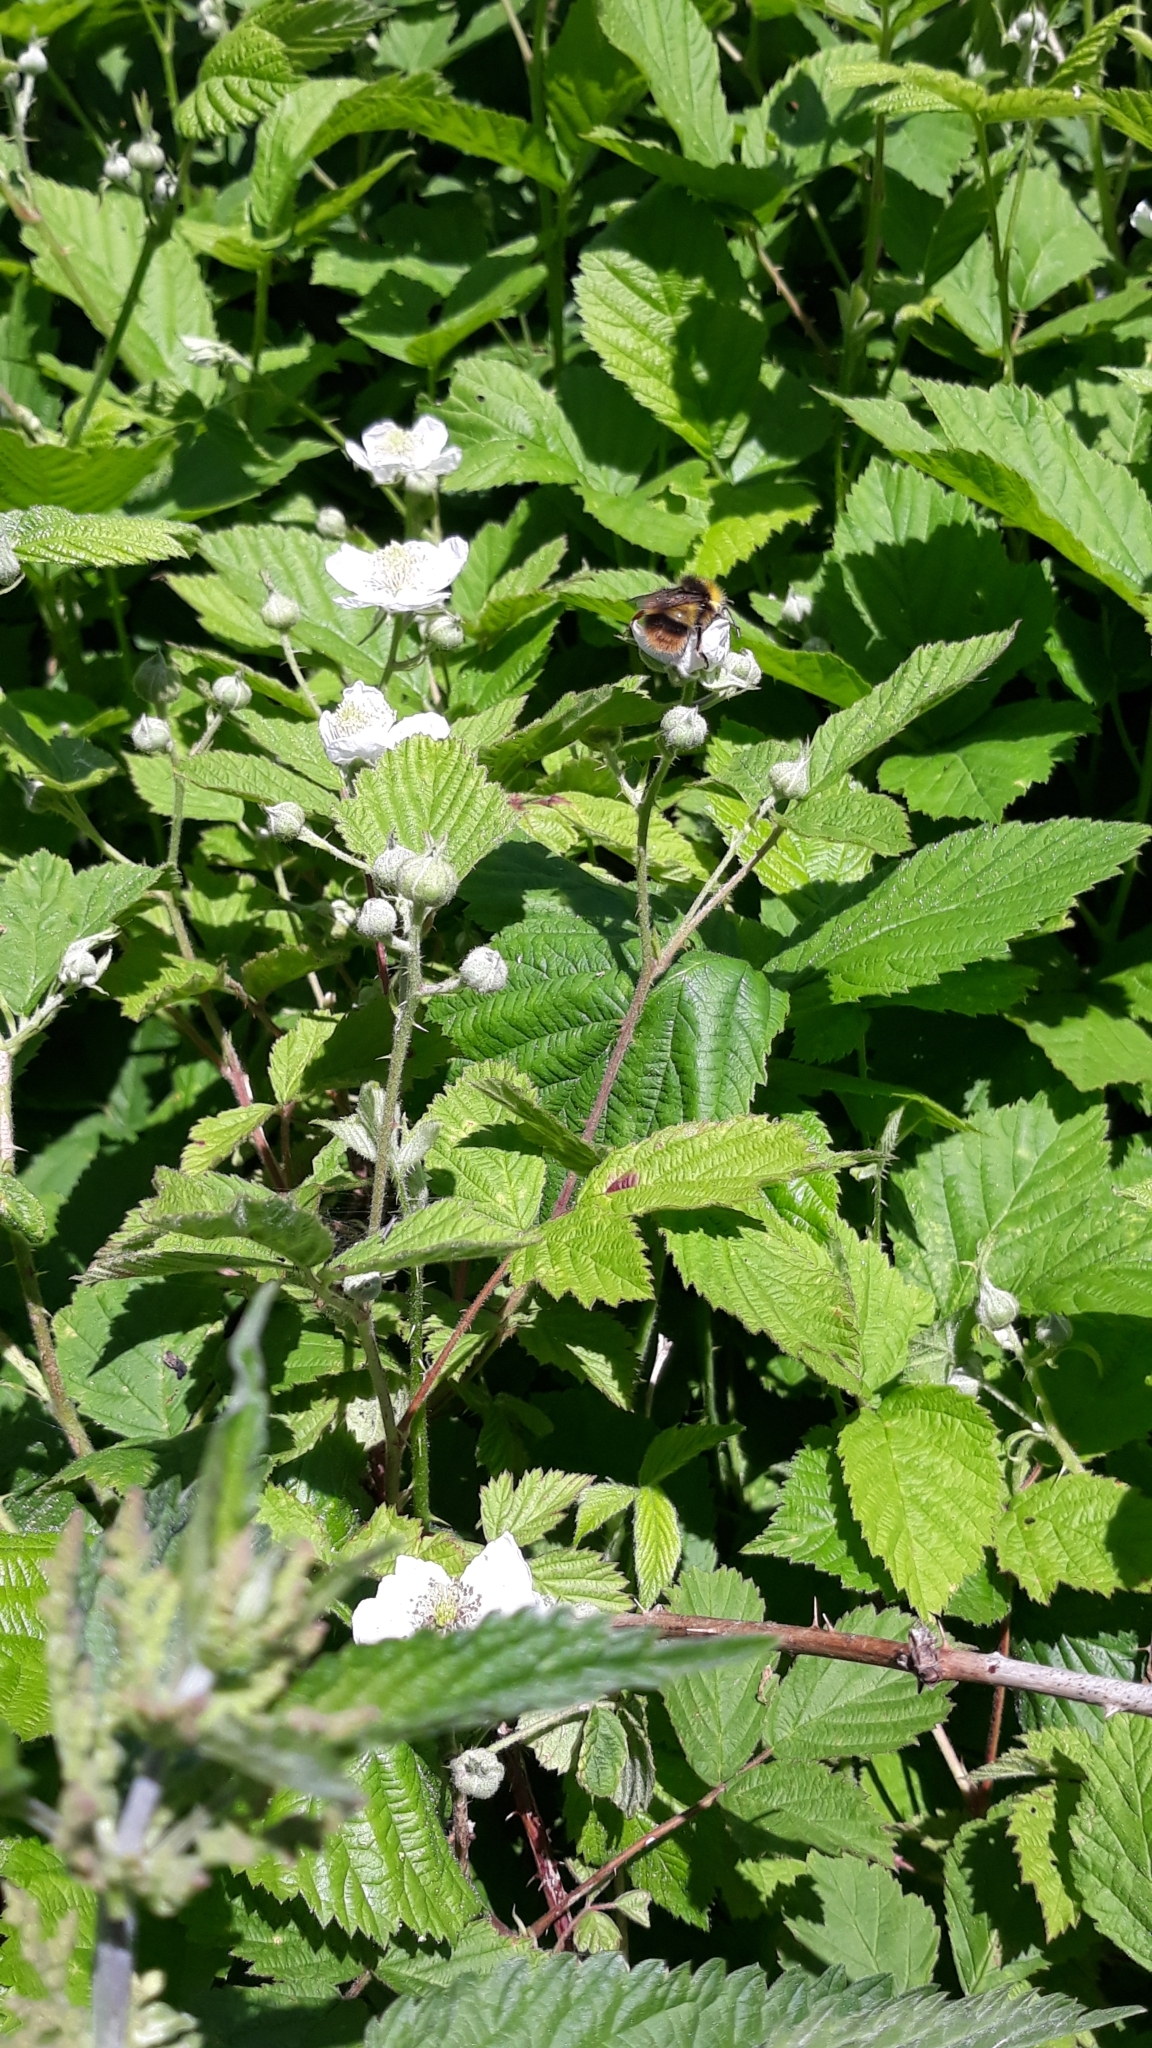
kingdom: Animalia
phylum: Arthropoda
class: Insecta
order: Hymenoptera
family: Apidae
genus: Bombus
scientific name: Bombus pratorum
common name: Early humble-bee
